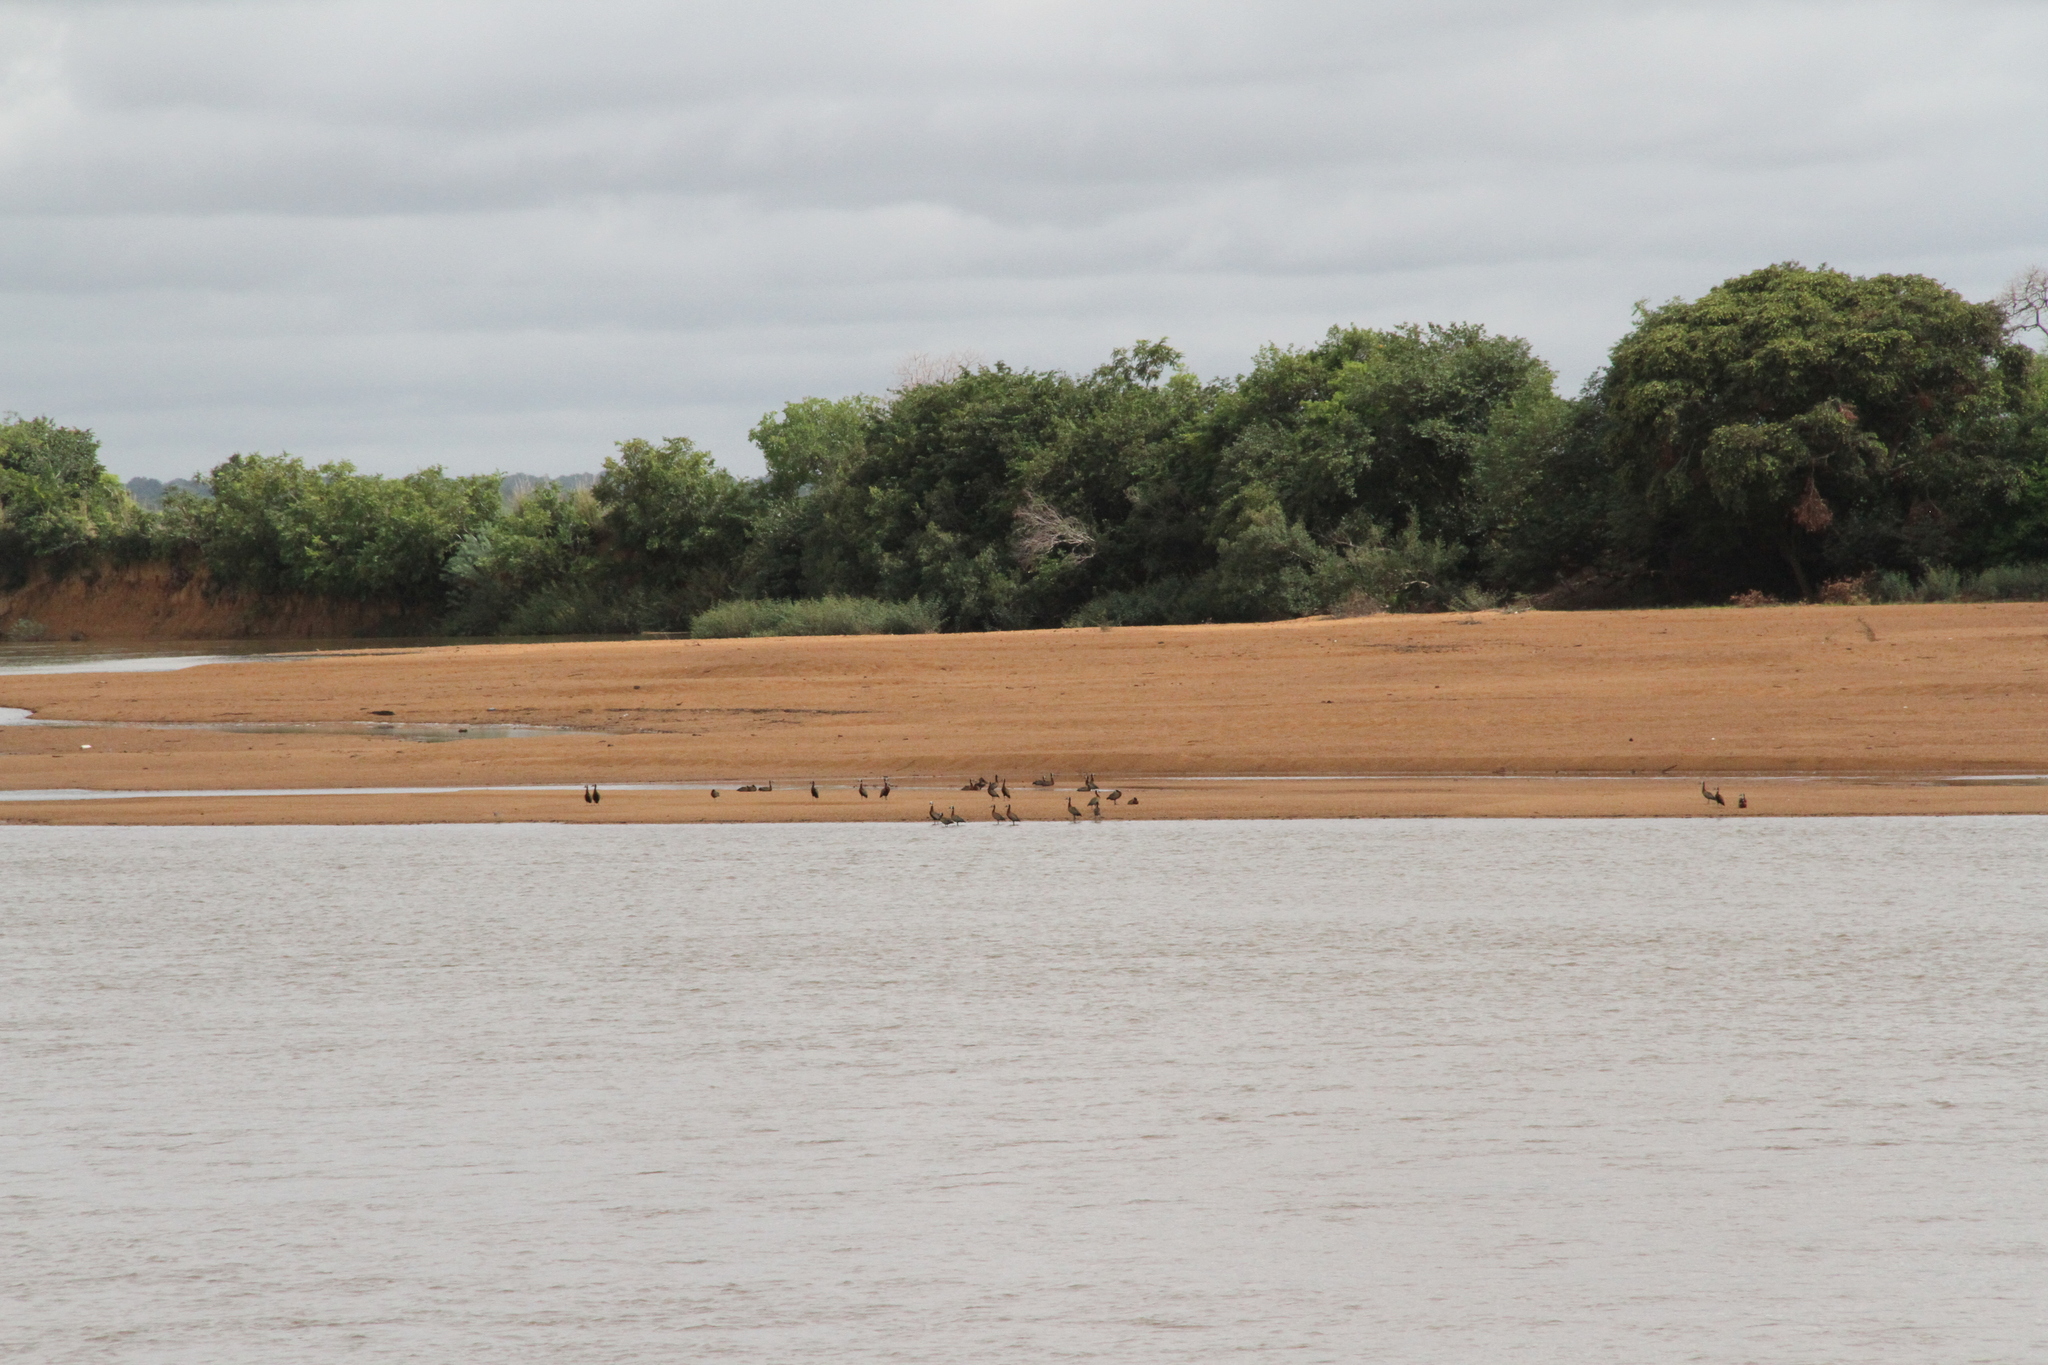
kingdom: Animalia
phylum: Chordata
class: Aves
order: Anseriformes
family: Anatidae
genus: Dendrocygna
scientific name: Dendrocygna viduata
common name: White-faced whistling duck
